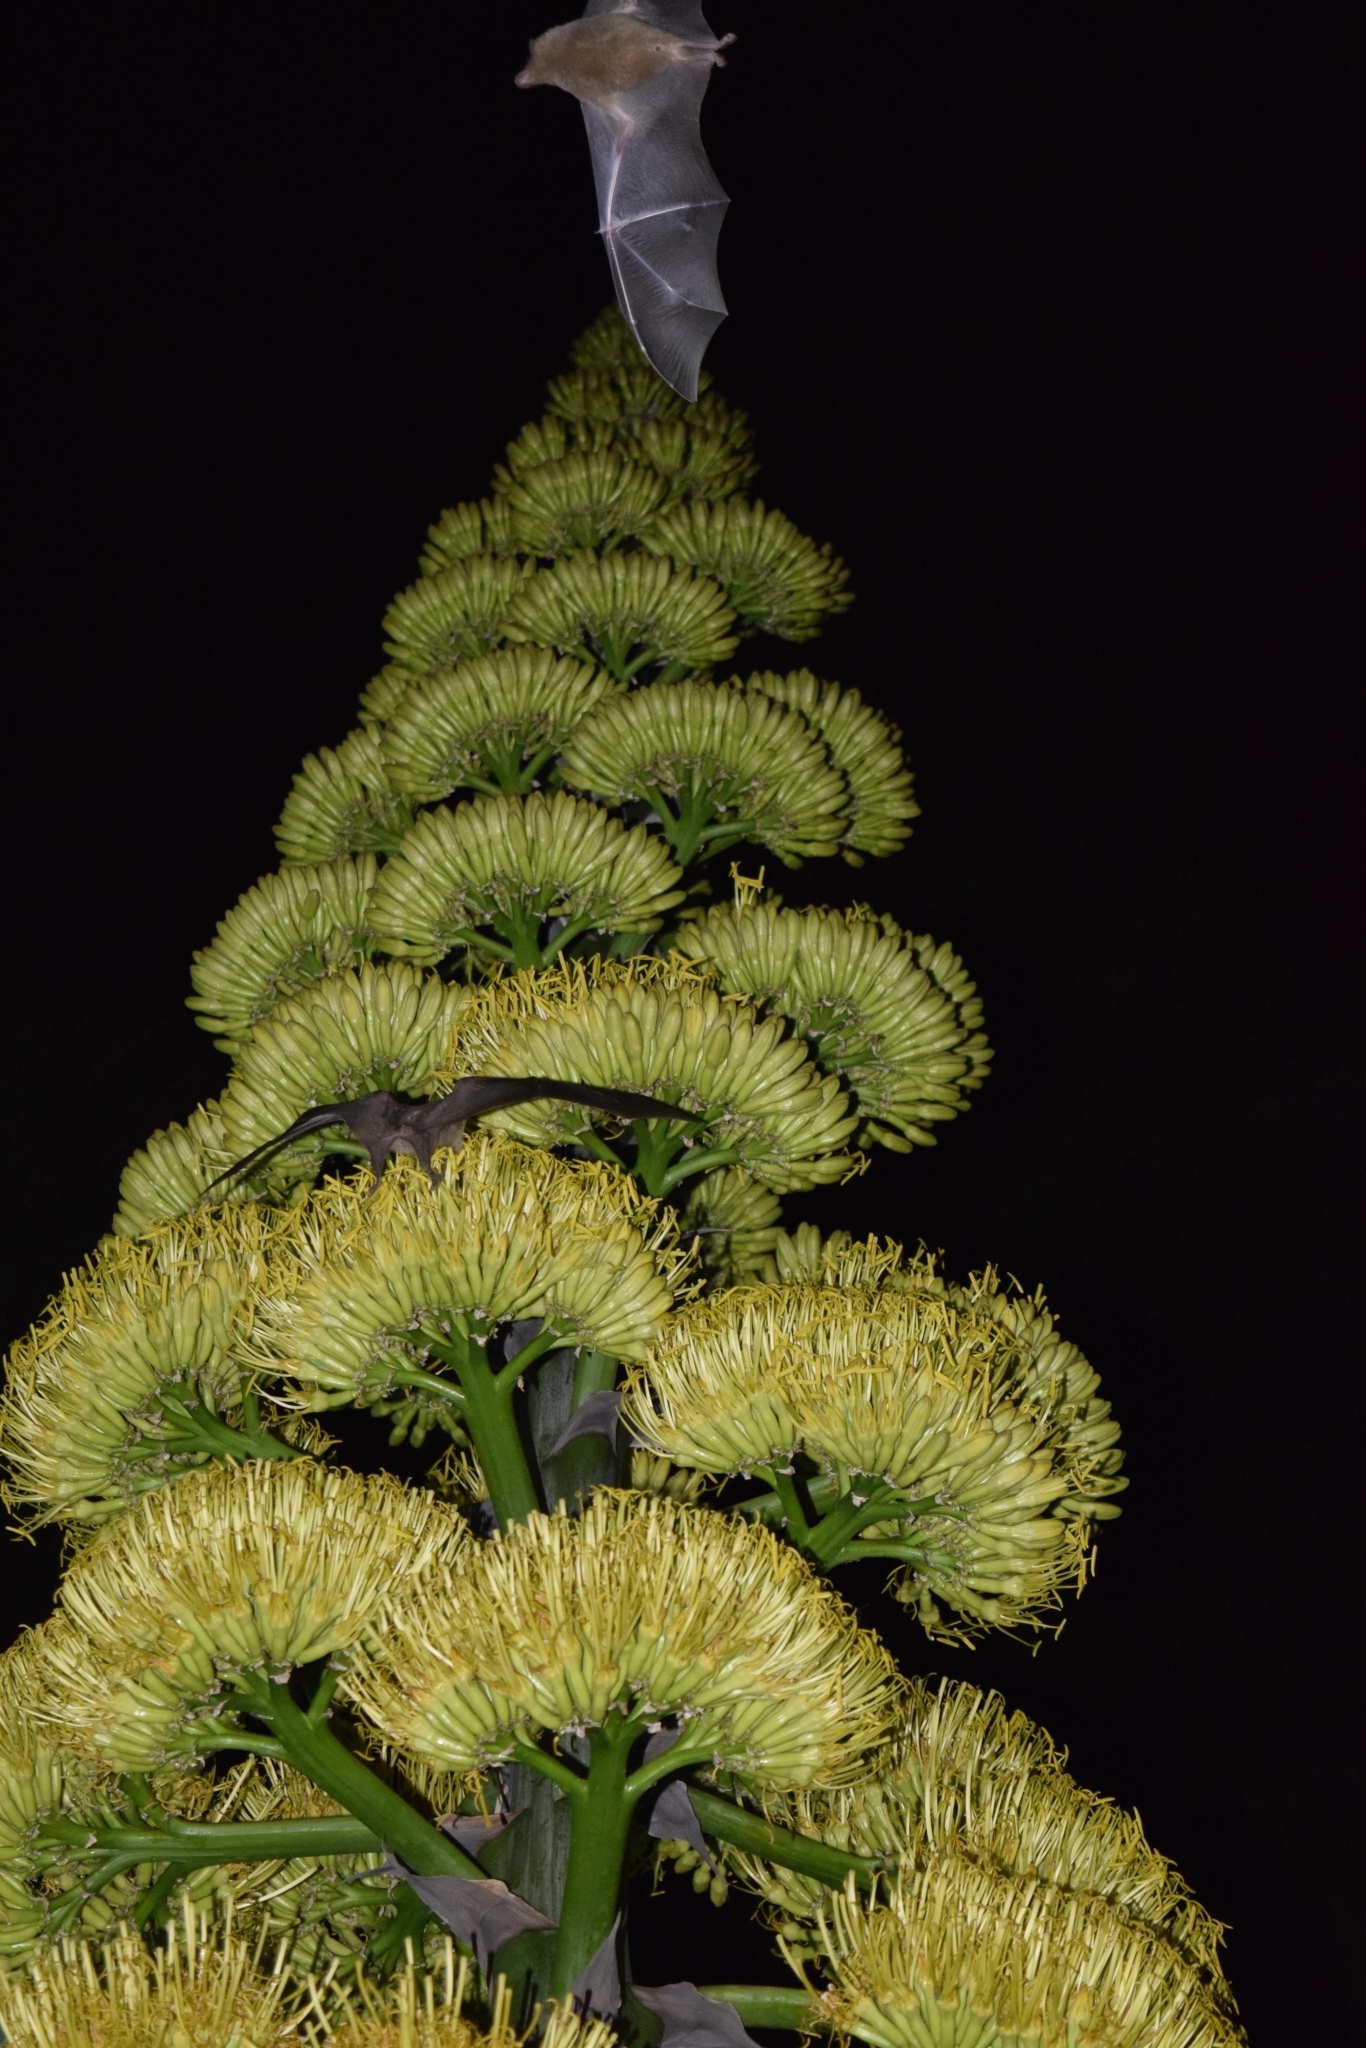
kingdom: Plantae
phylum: Tracheophyta
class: Liliopsida
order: Asparagales
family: Asparagaceae
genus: Agave
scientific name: Agave salmiana
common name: Pulque agave
